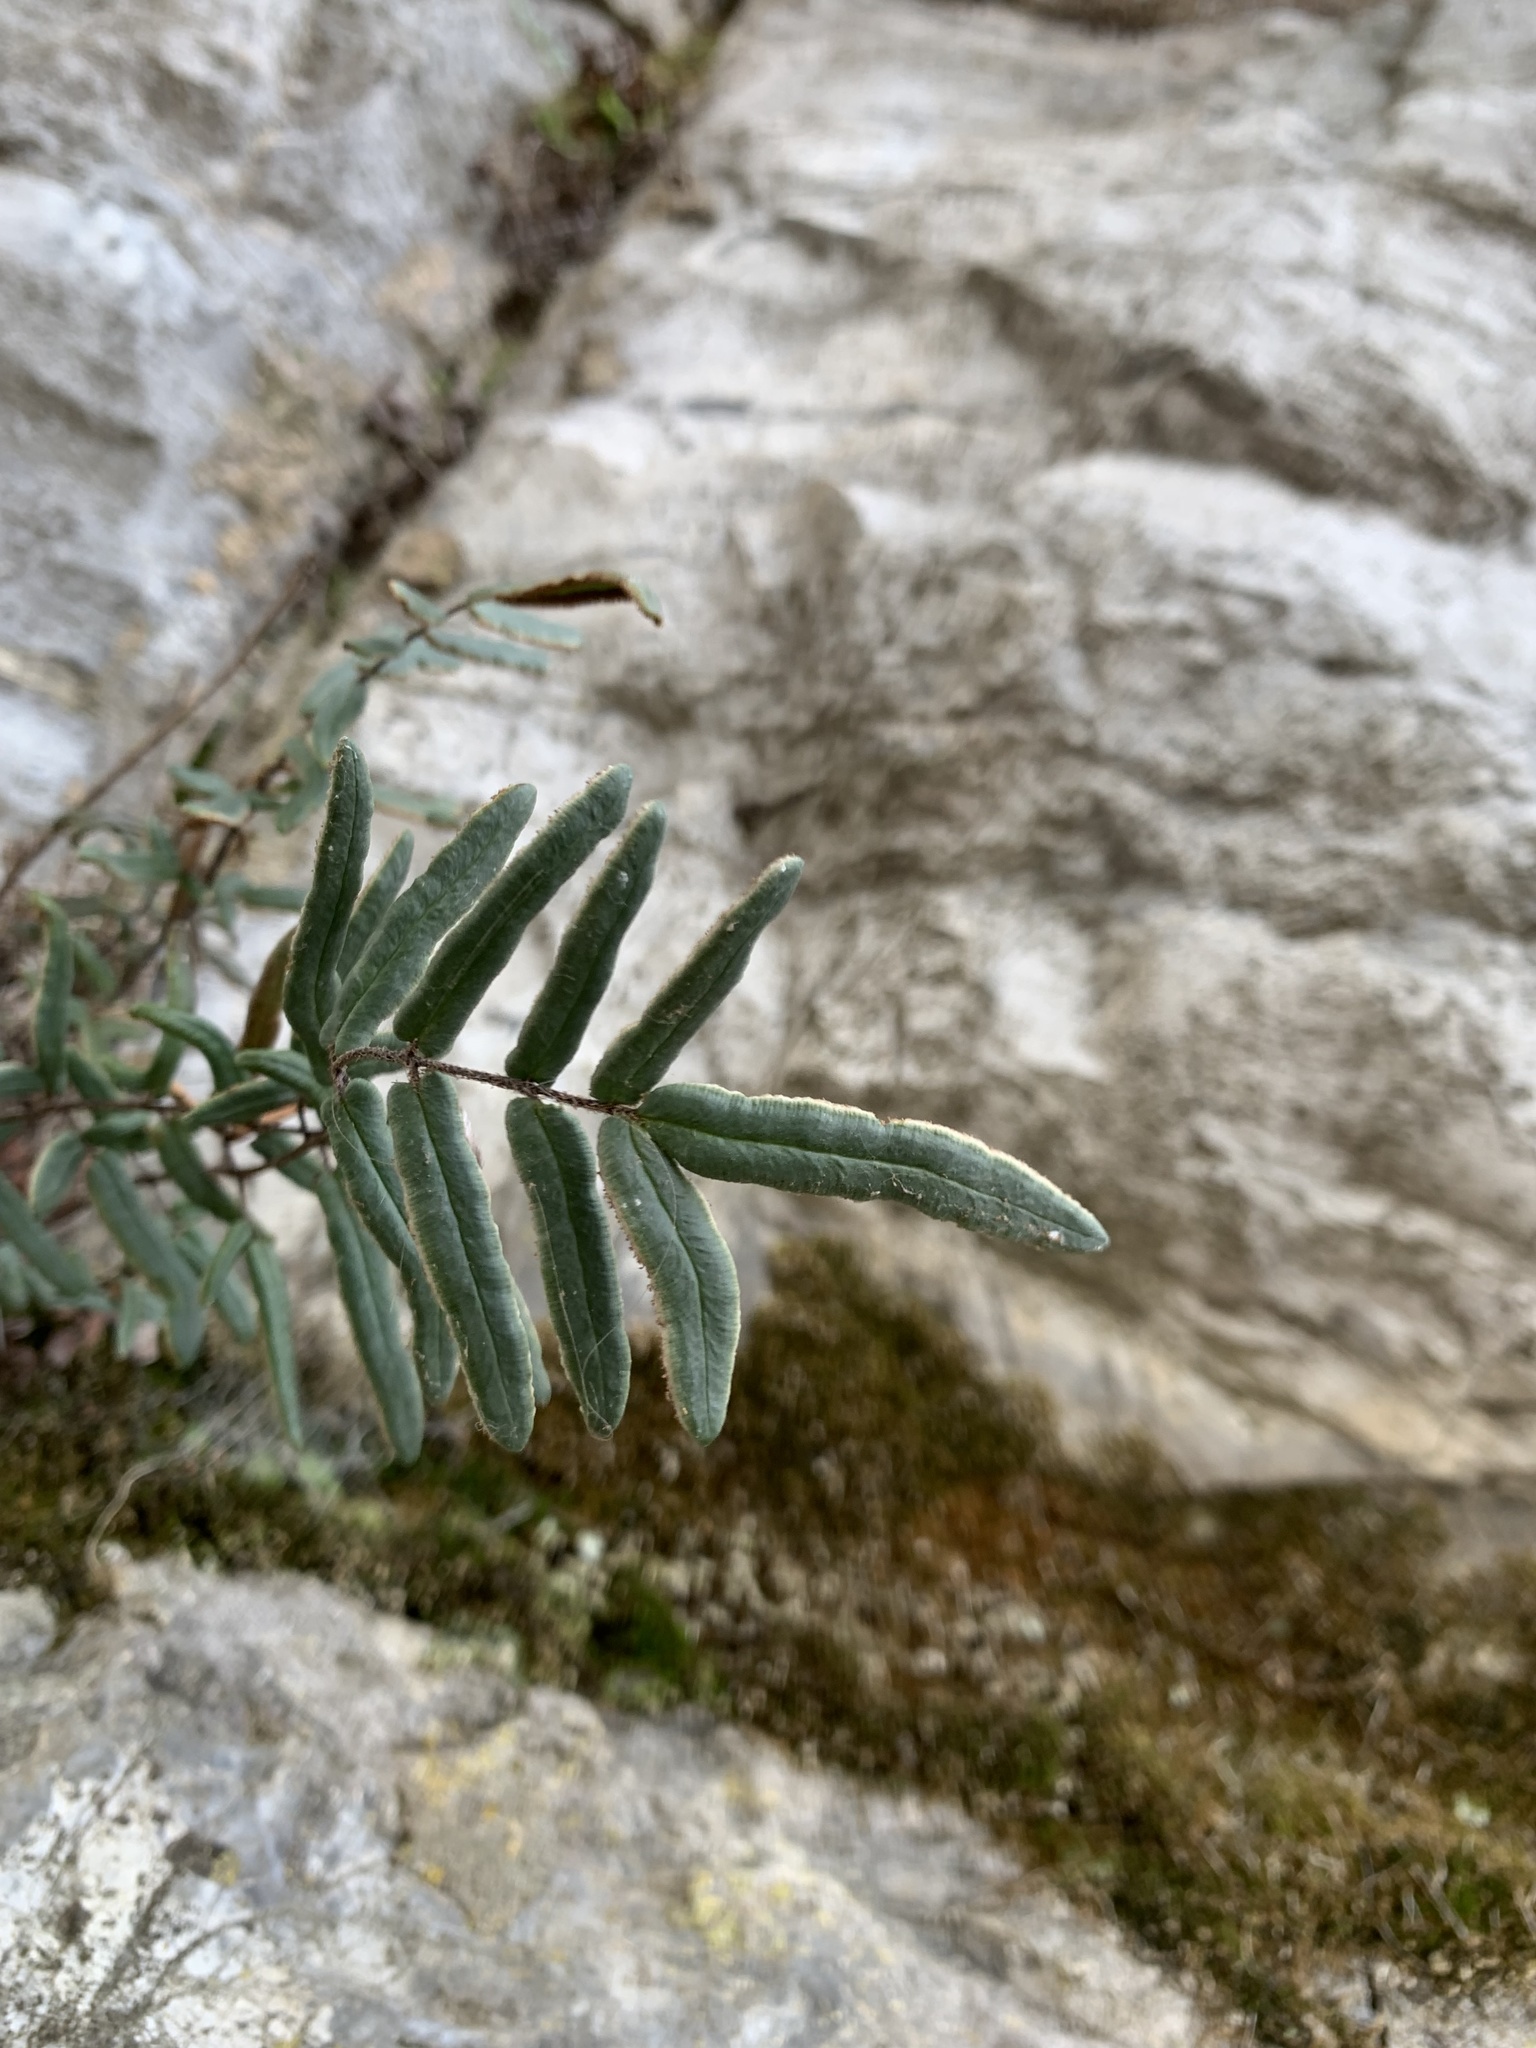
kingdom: Plantae
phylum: Tracheophyta
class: Polypodiopsida
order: Polypodiales
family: Pteridaceae
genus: Pellaea
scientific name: Pellaea atropurpurea
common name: Hairy cliffbrake
